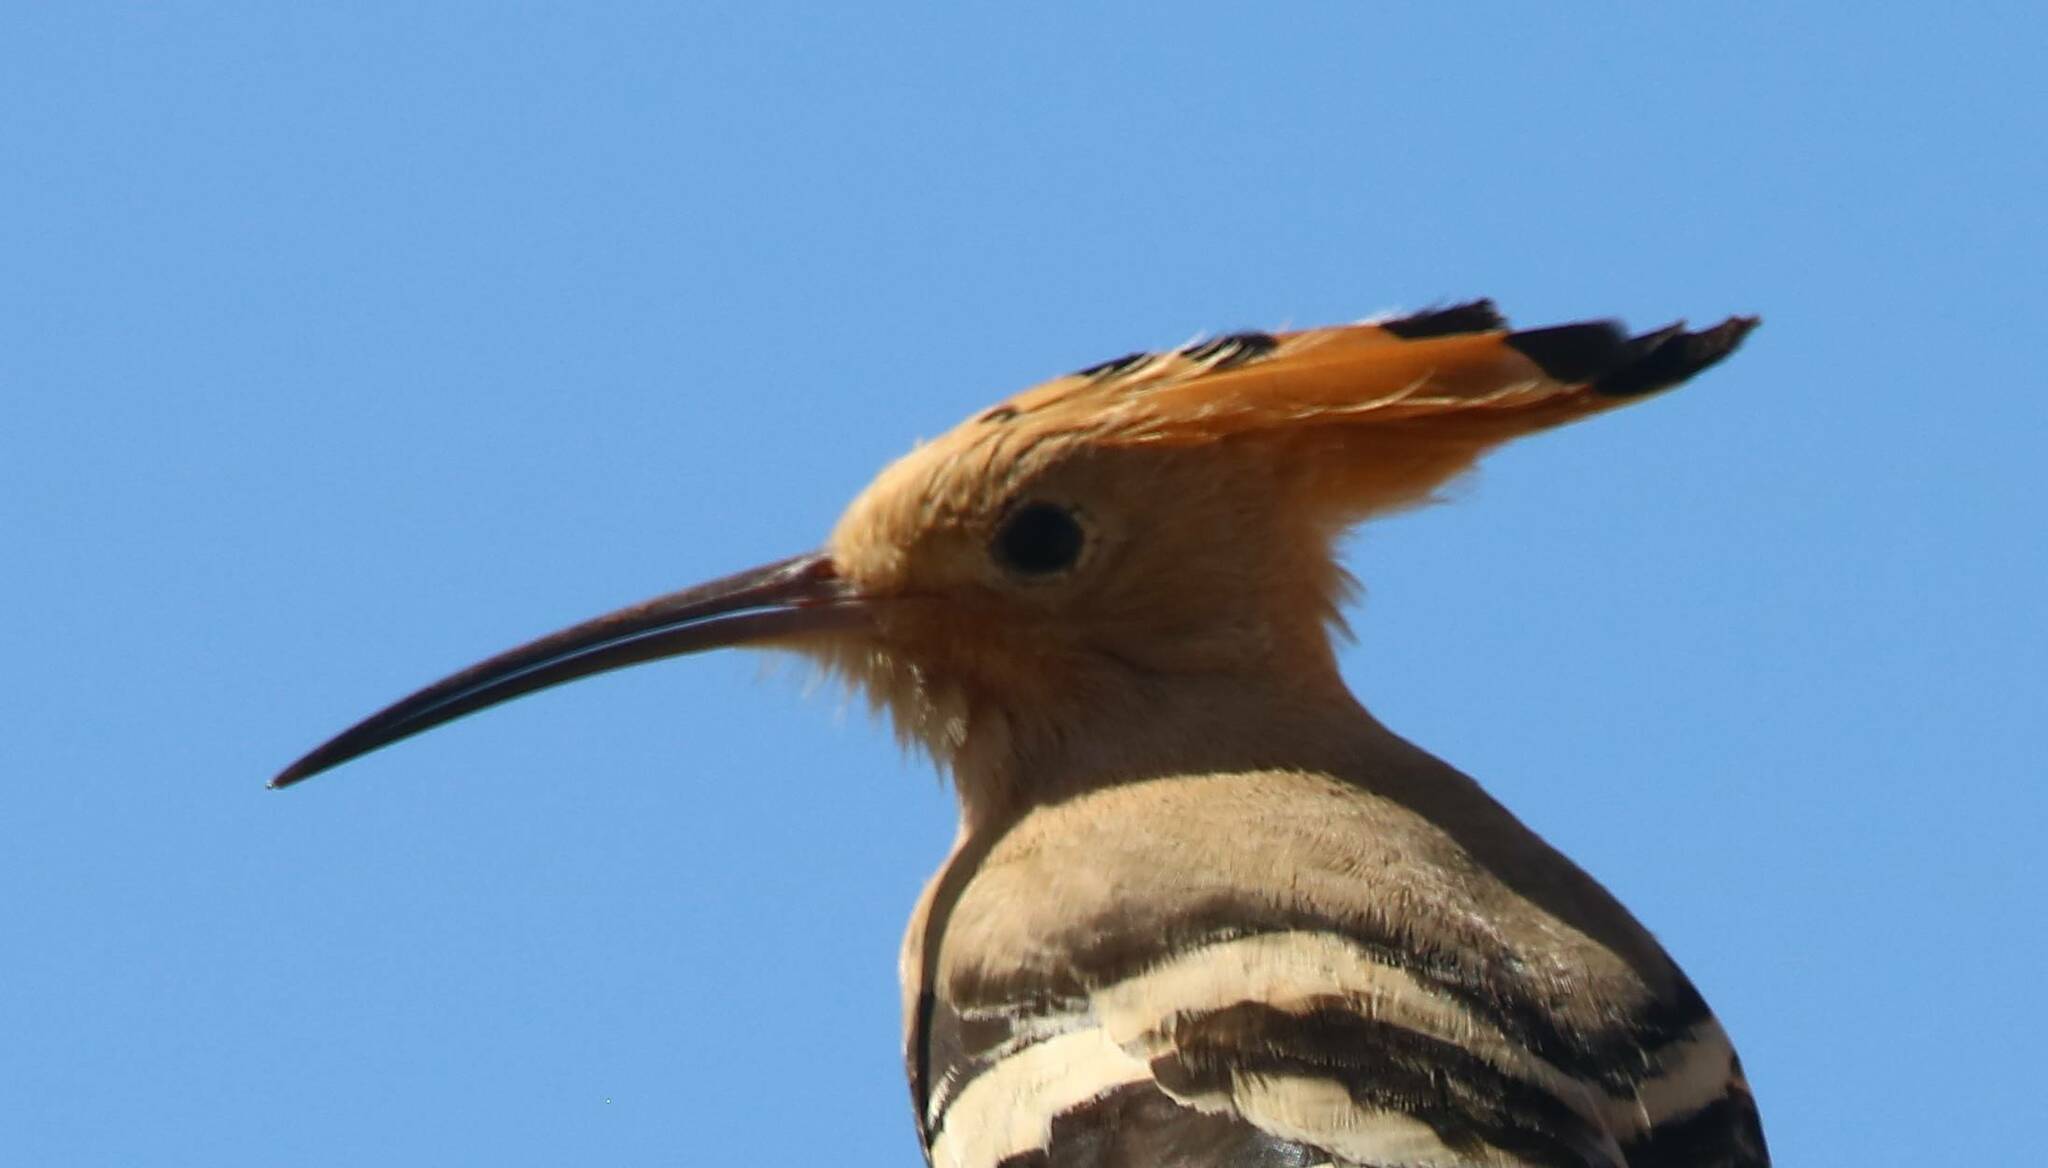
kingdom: Animalia
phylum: Chordata
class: Aves
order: Bucerotiformes
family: Upupidae
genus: Upupa
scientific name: Upupa epops
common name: Eurasian hoopoe
